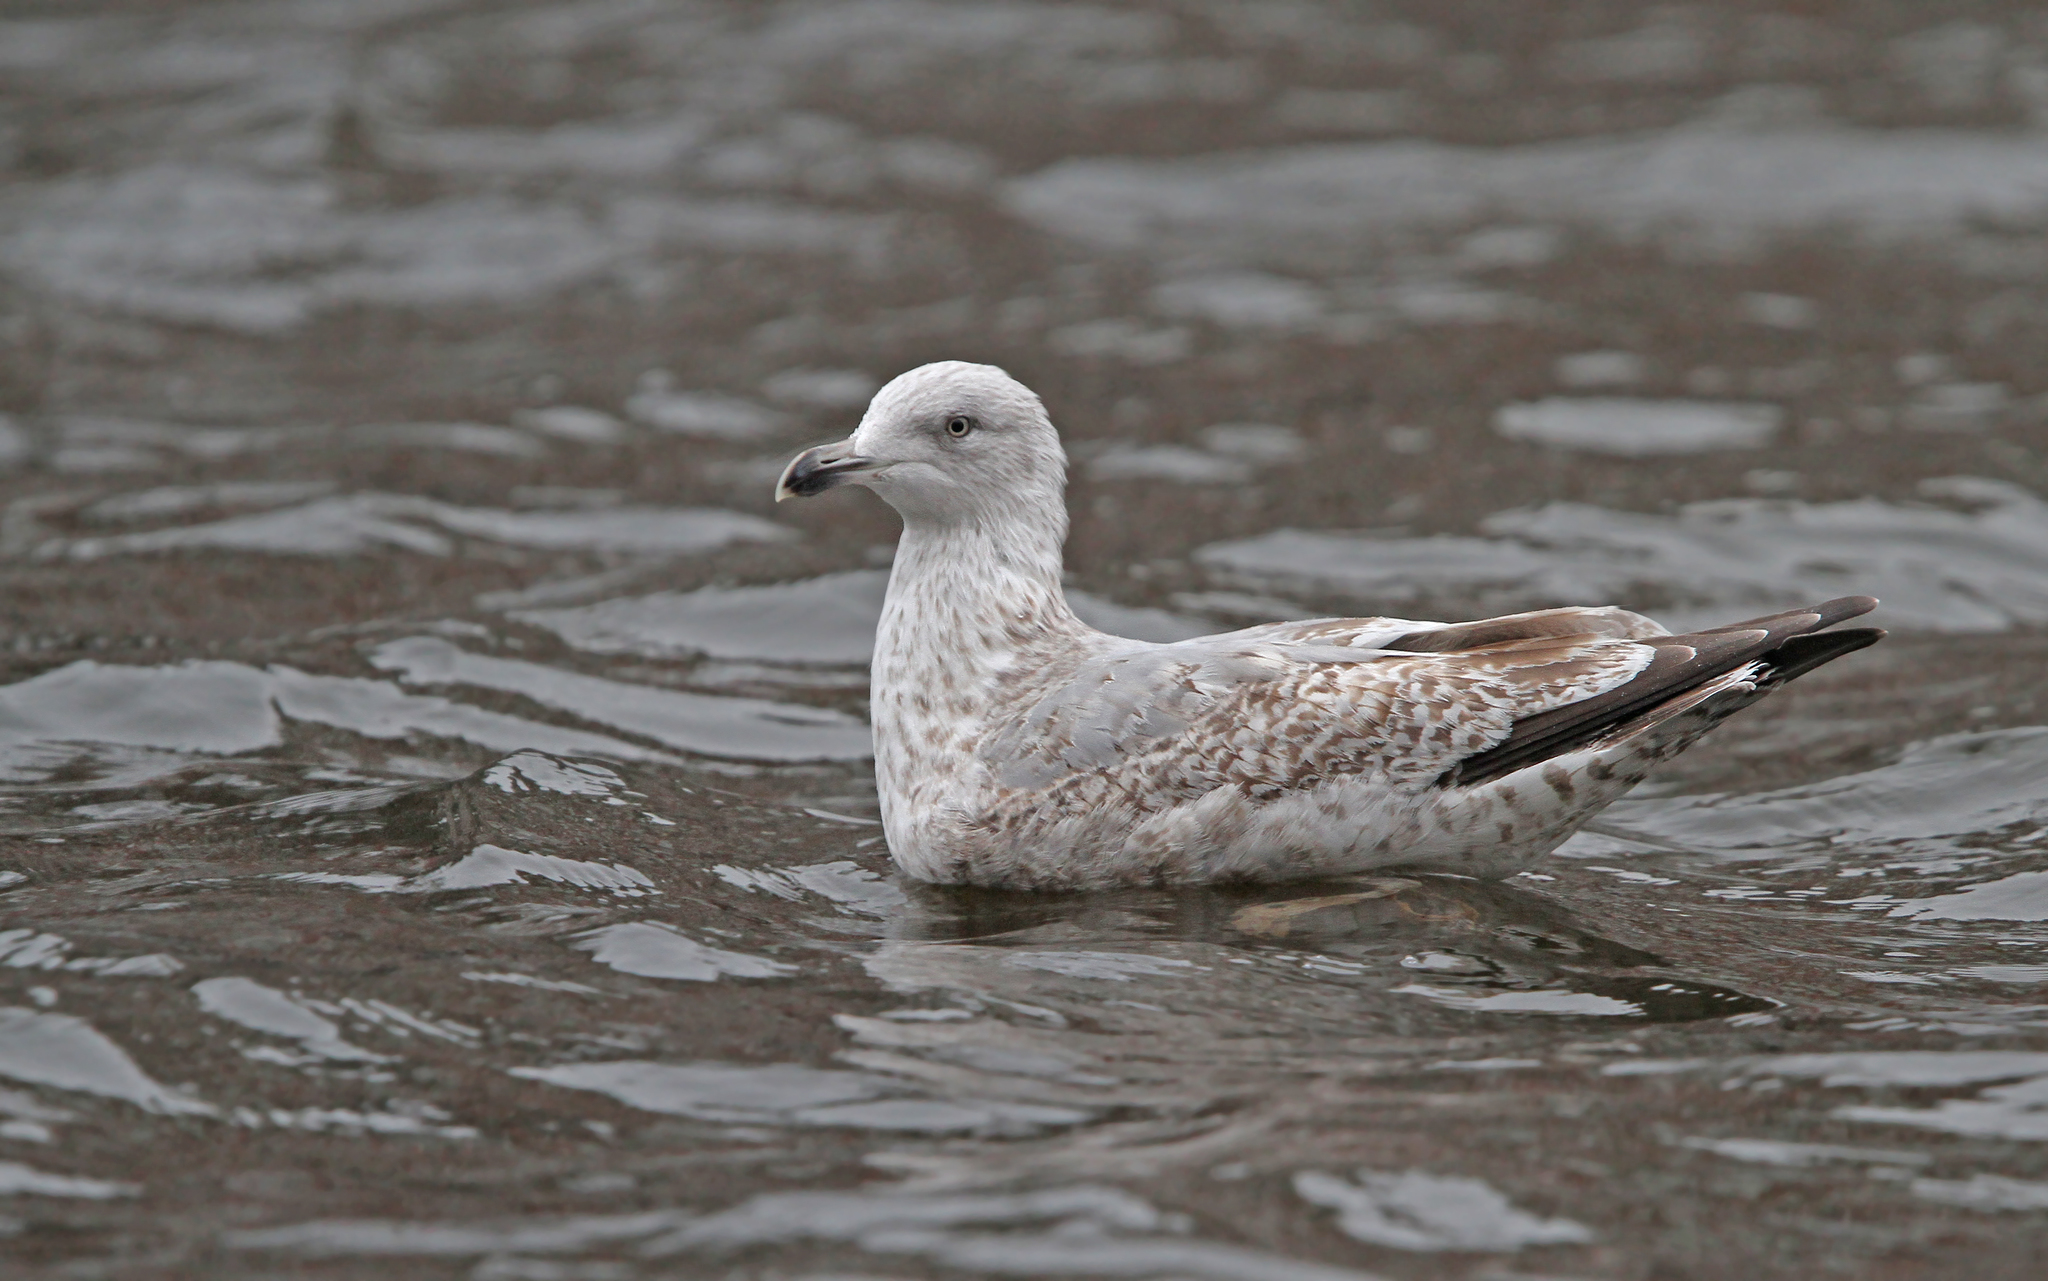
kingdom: Animalia
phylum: Chordata
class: Aves
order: Charadriiformes
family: Laridae
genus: Larus
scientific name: Larus argentatus
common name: Herring gull
